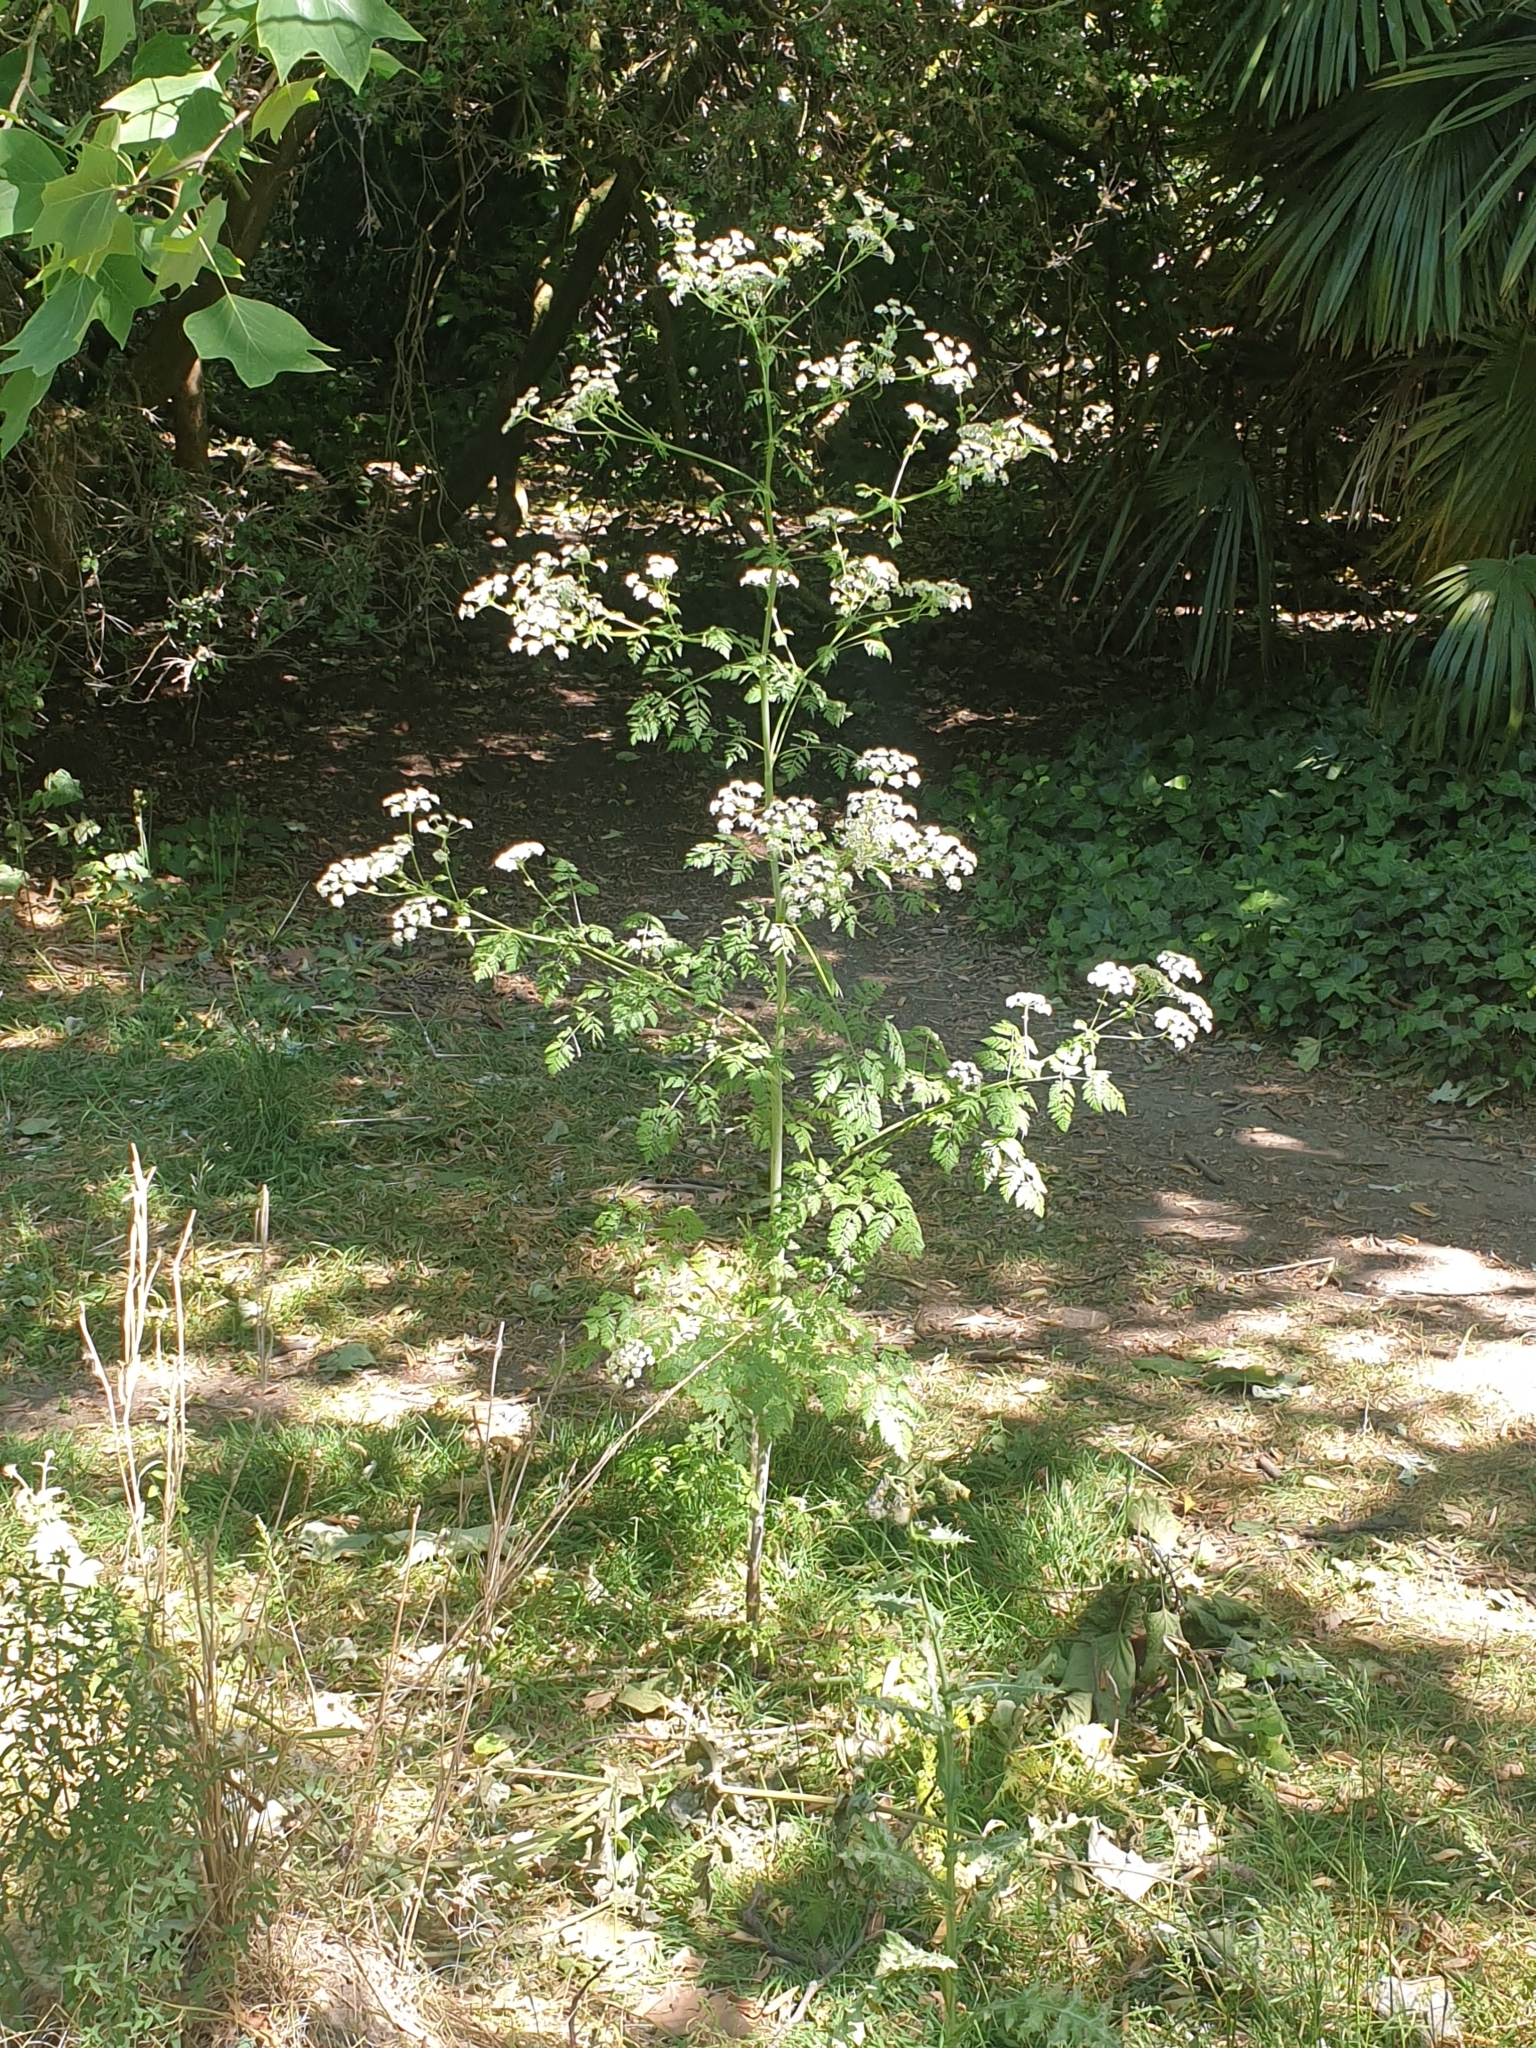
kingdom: Plantae
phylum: Tracheophyta
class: Magnoliopsida
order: Apiales
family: Apiaceae
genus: Conium
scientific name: Conium maculatum
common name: Hemlock
